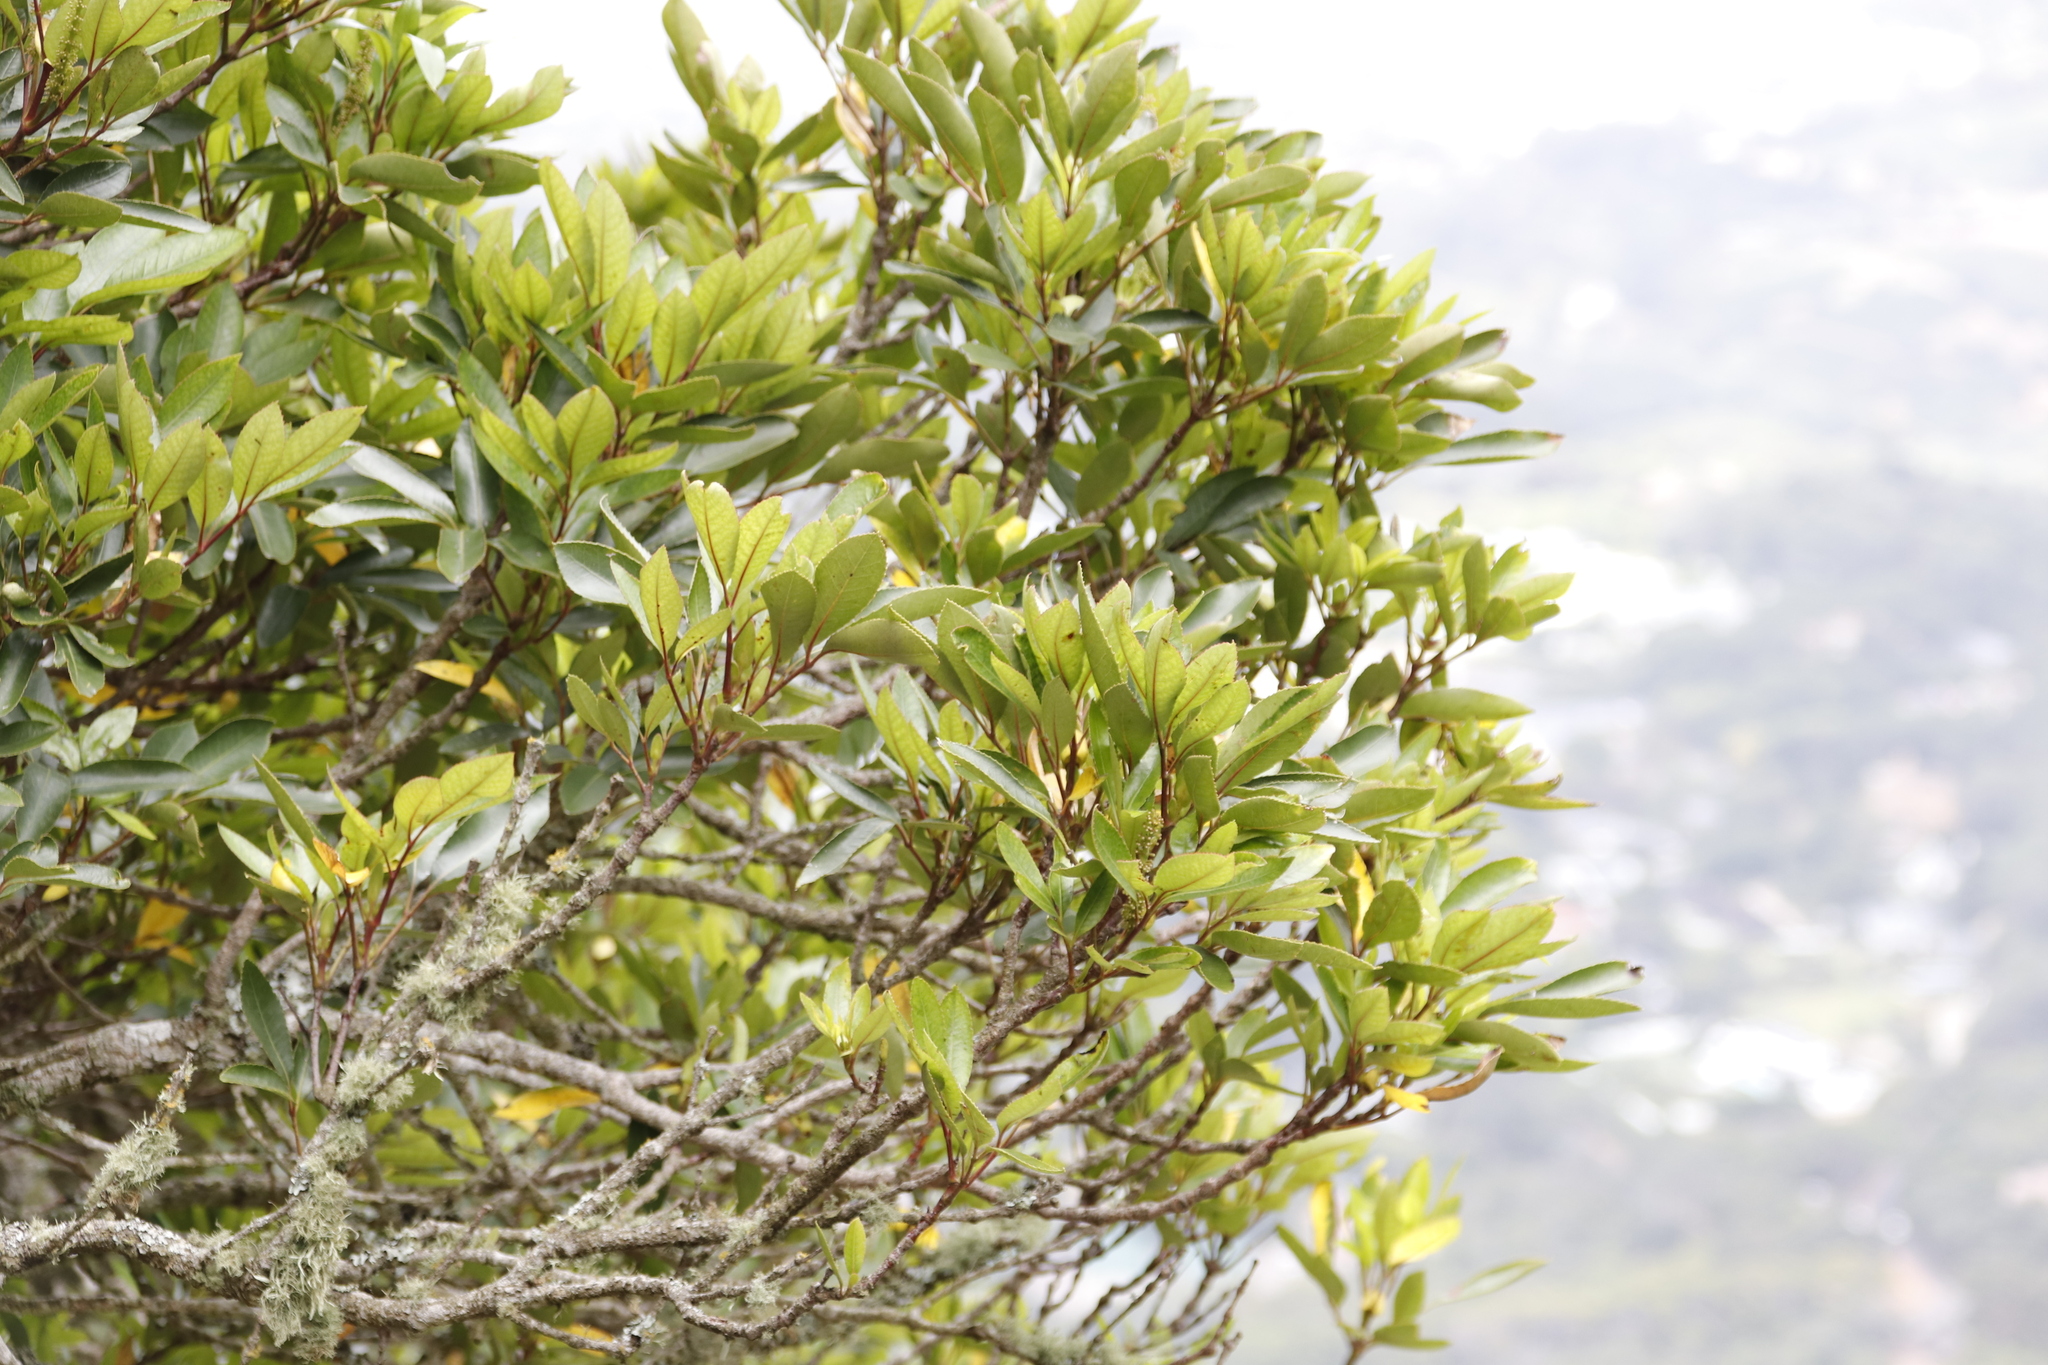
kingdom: Plantae
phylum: Tracheophyta
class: Magnoliopsida
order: Oxalidales
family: Cunoniaceae
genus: Cunonia
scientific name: Cunonia capensis
